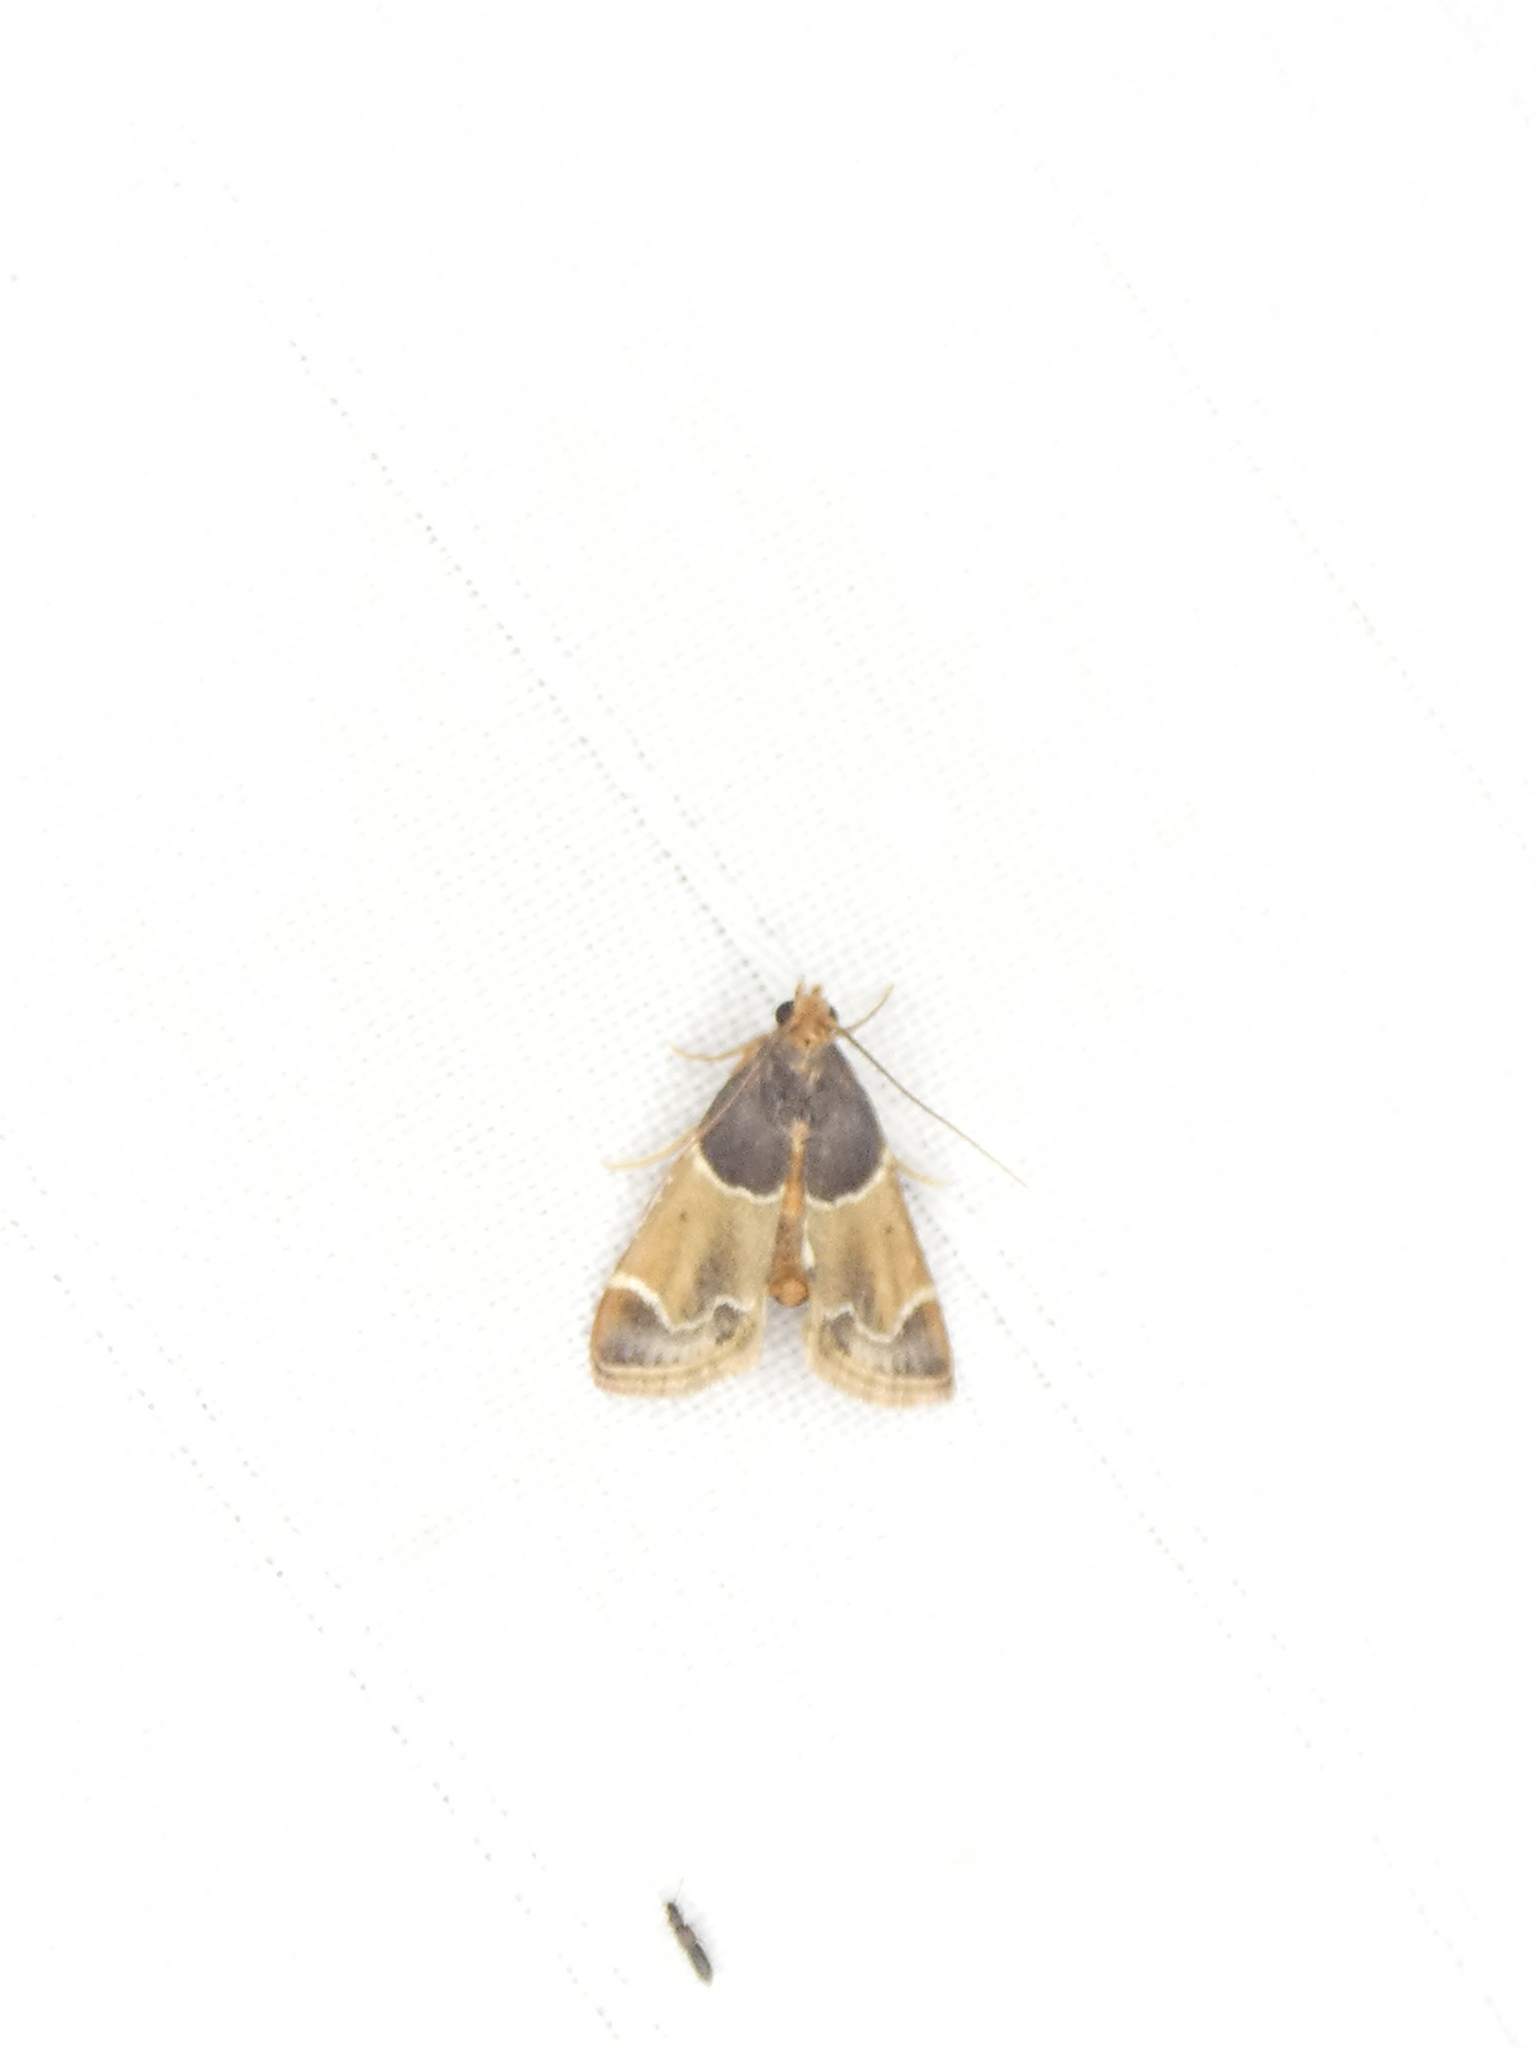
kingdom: Animalia
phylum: Arthropoda
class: Insecta
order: Lepidoptera
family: Pyralidae
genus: Pyralis
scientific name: Pyralis farinalis
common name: Meal moth
